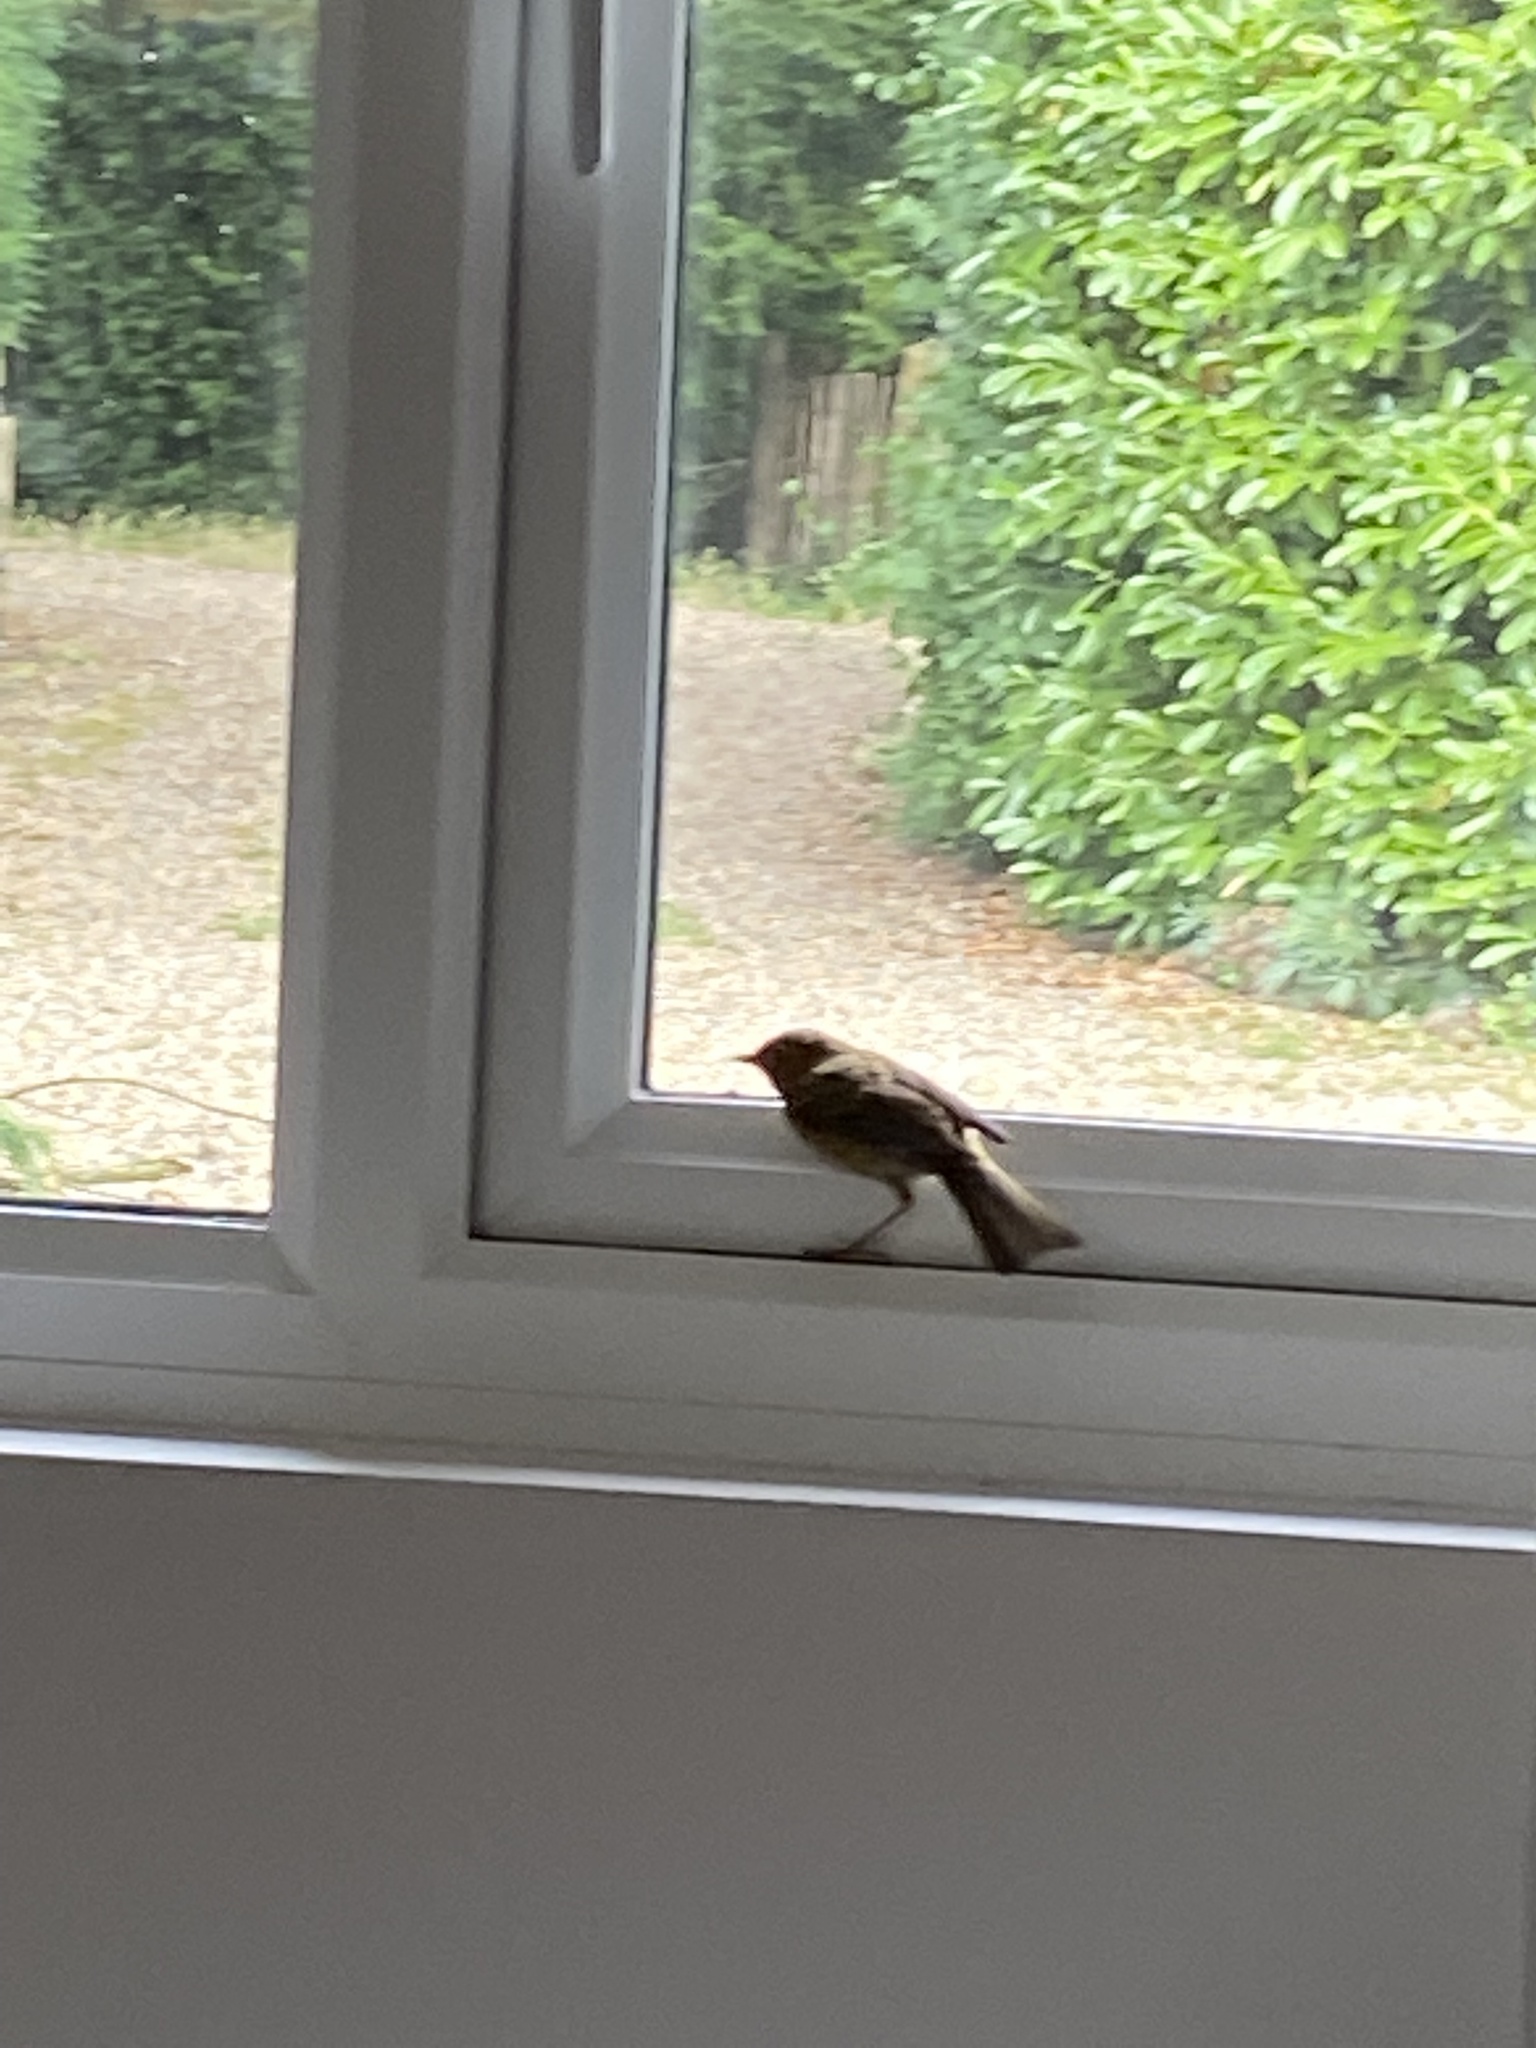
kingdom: Animalia
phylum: Chordata
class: Aves
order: Passeriformes
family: Turdidae
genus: Turdus
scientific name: Turdus merula
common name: Common blackbird
